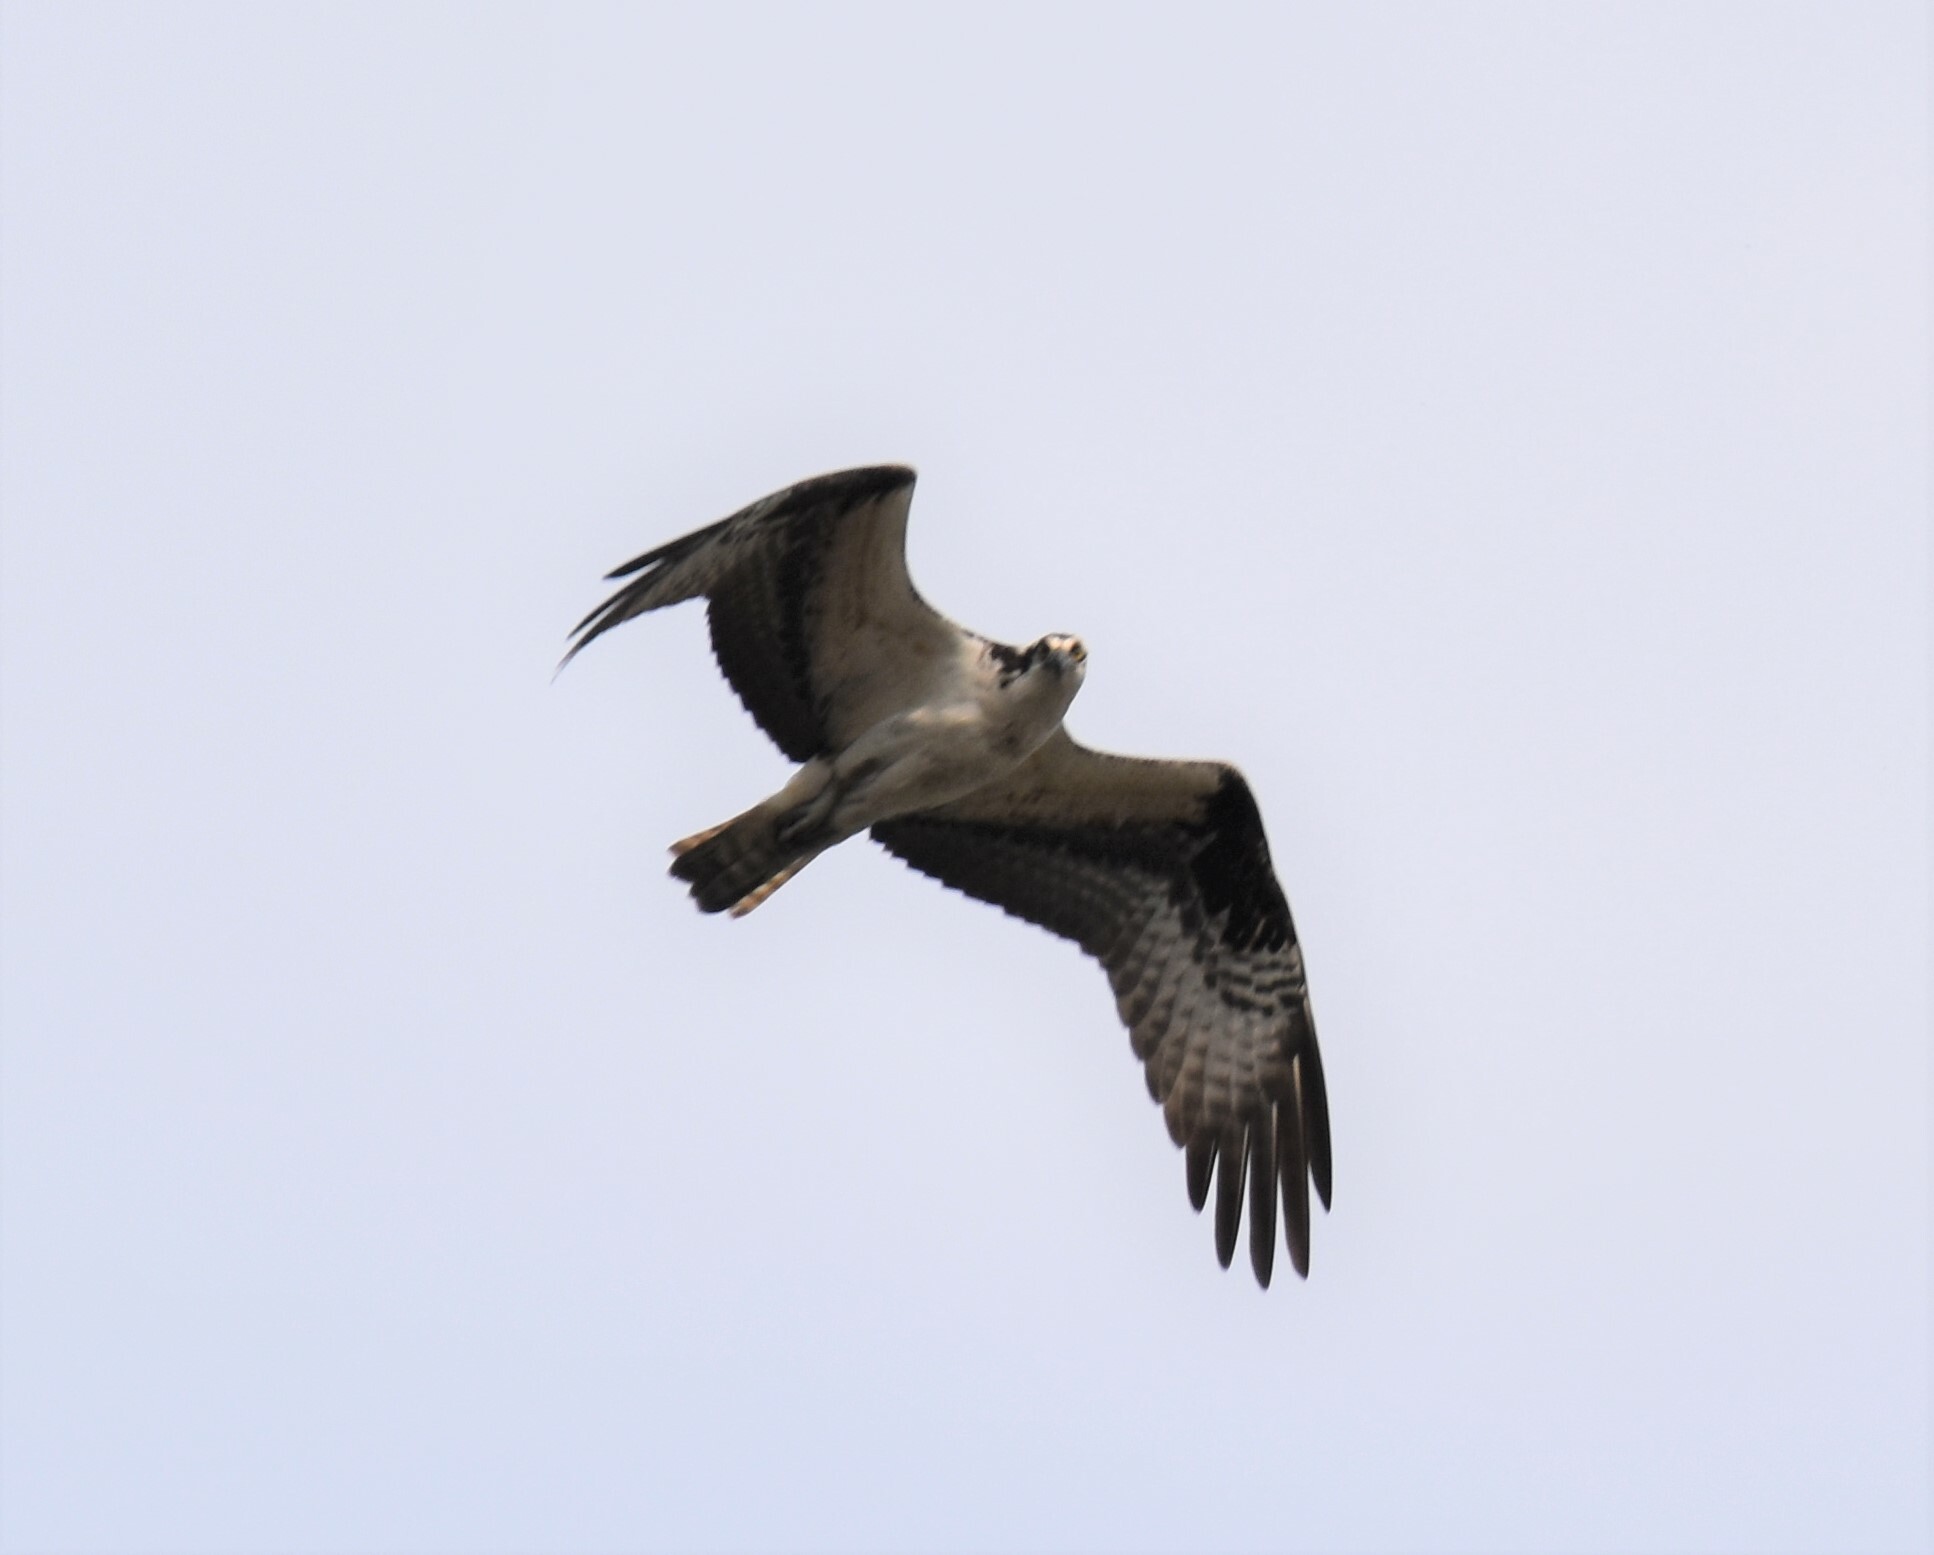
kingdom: Animalia
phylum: Chordata
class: Aves
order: Accipitriformes
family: Pandionidae
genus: Pandion
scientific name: Pandion haliaetus
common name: Osprey
